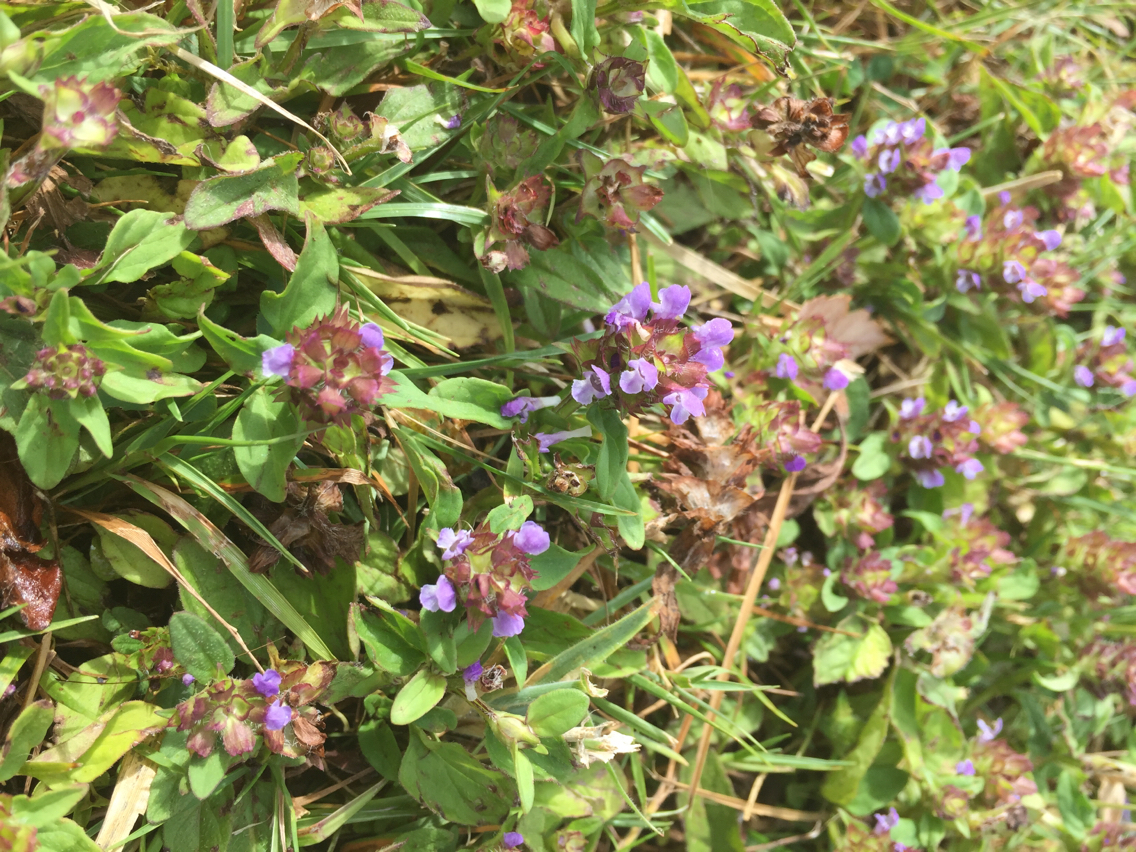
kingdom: Plantae
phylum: Tracheophyta
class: Magnoliopsida
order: Lamiales
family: Lamiaceae
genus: Prunella
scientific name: Prunella vulgaris
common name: Heal-all
